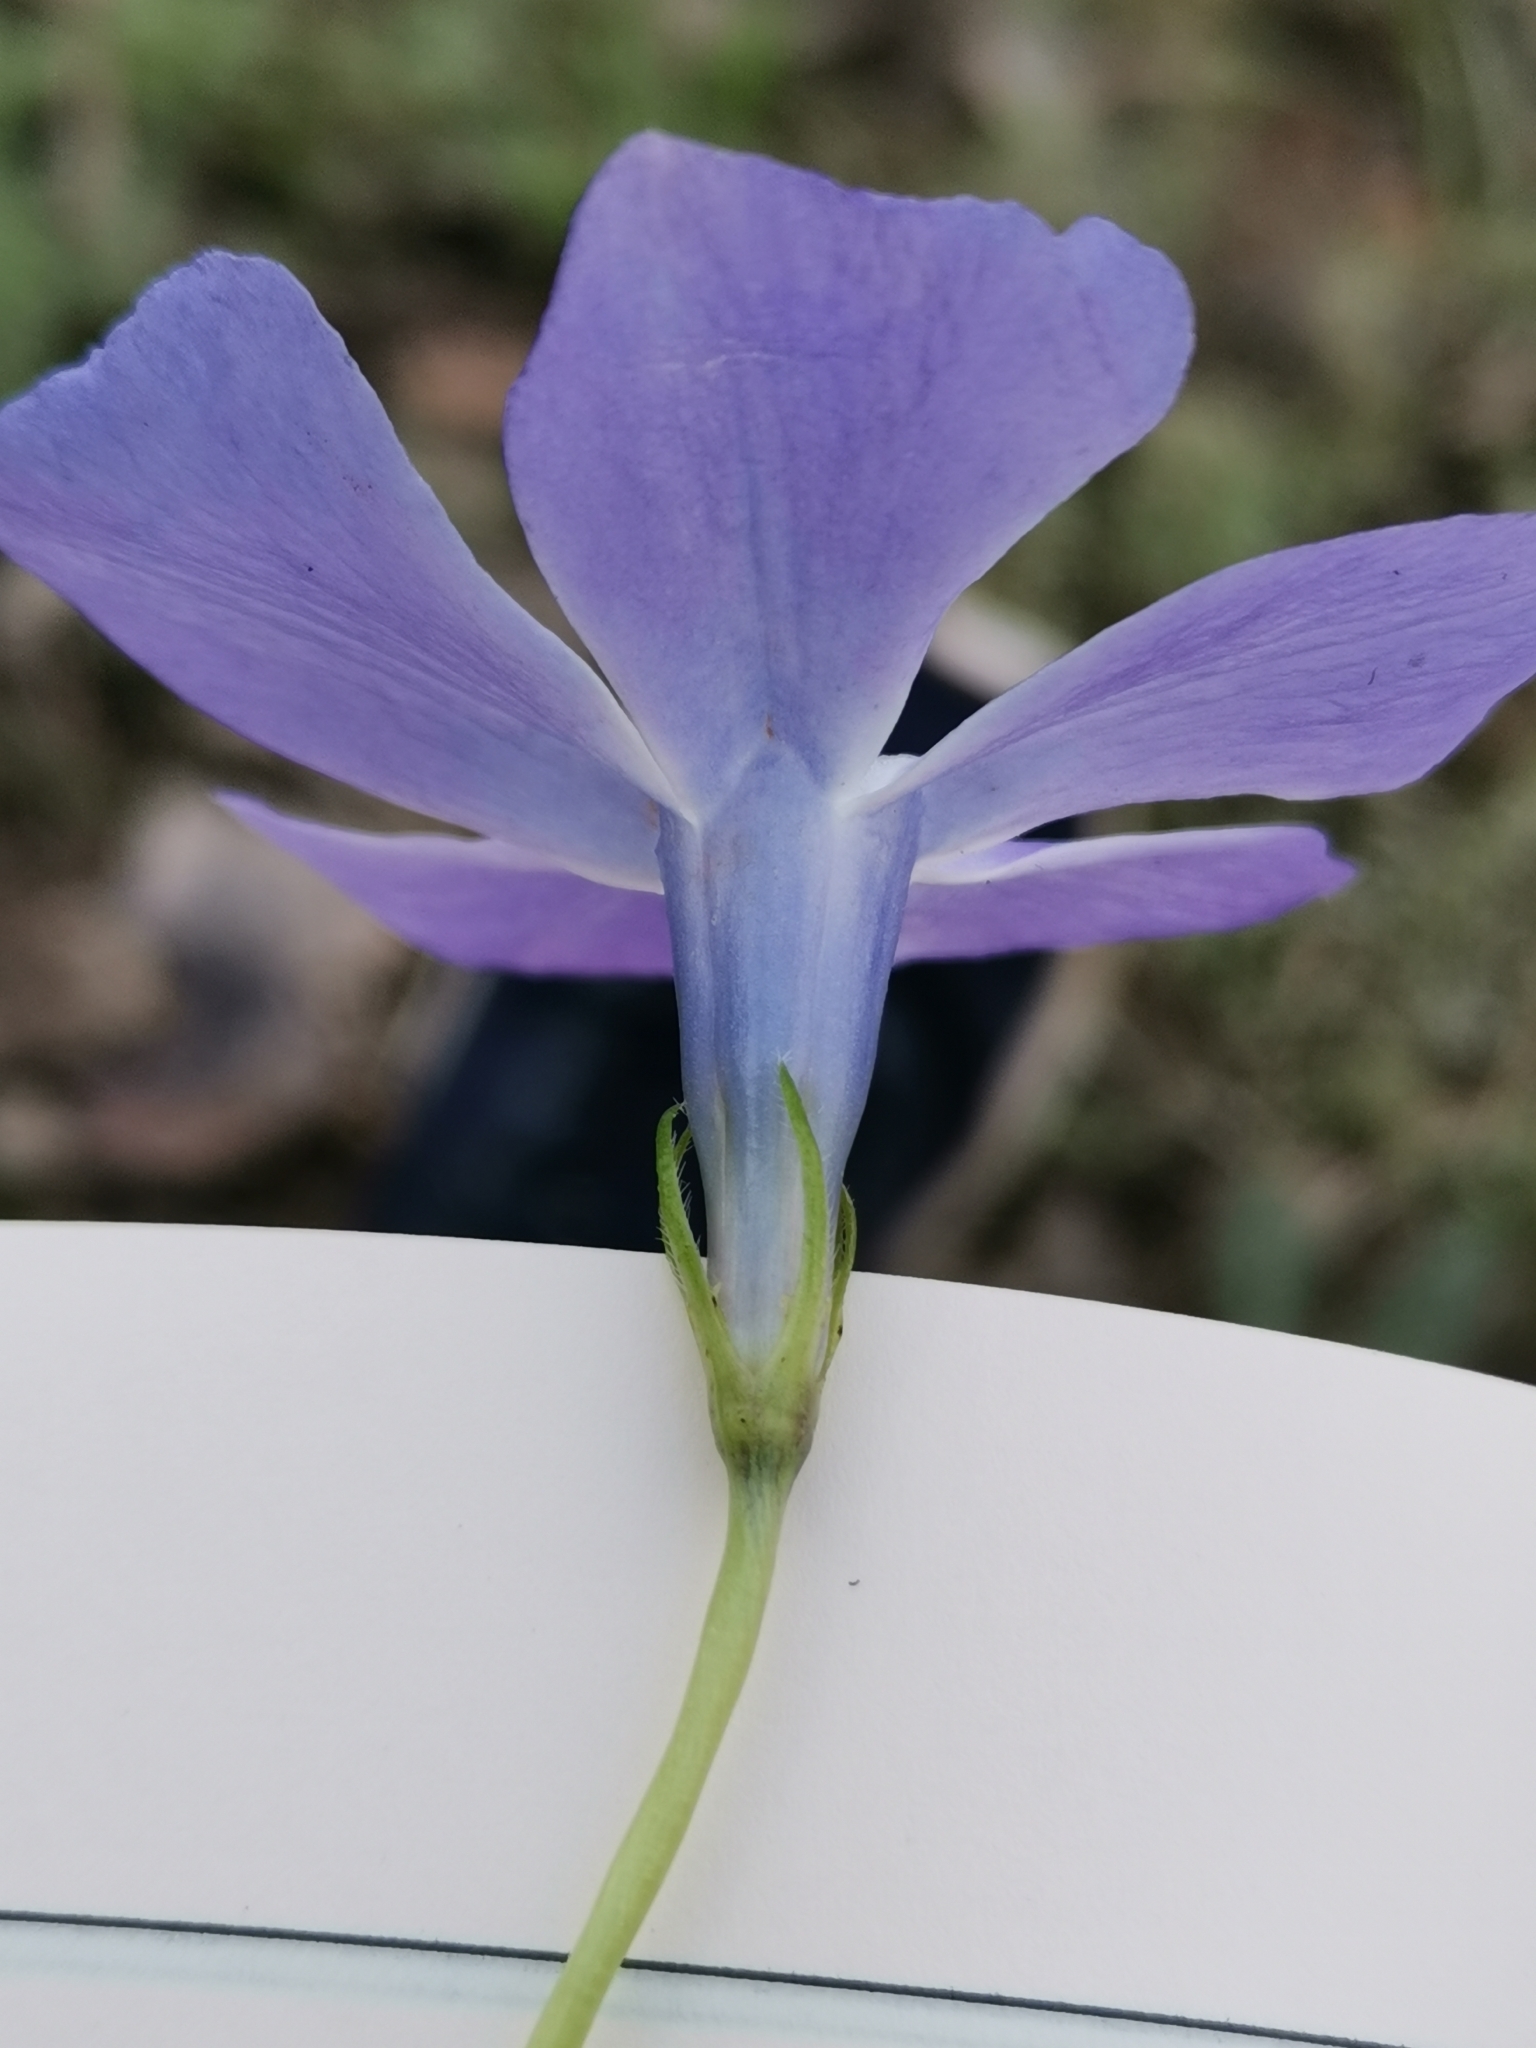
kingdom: Plantae
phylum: Tracheophyta
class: Magnoliopsida
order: Gentianales
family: Apocynaceae
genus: Vinca
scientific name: Vinca major
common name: Greater periwinkle
